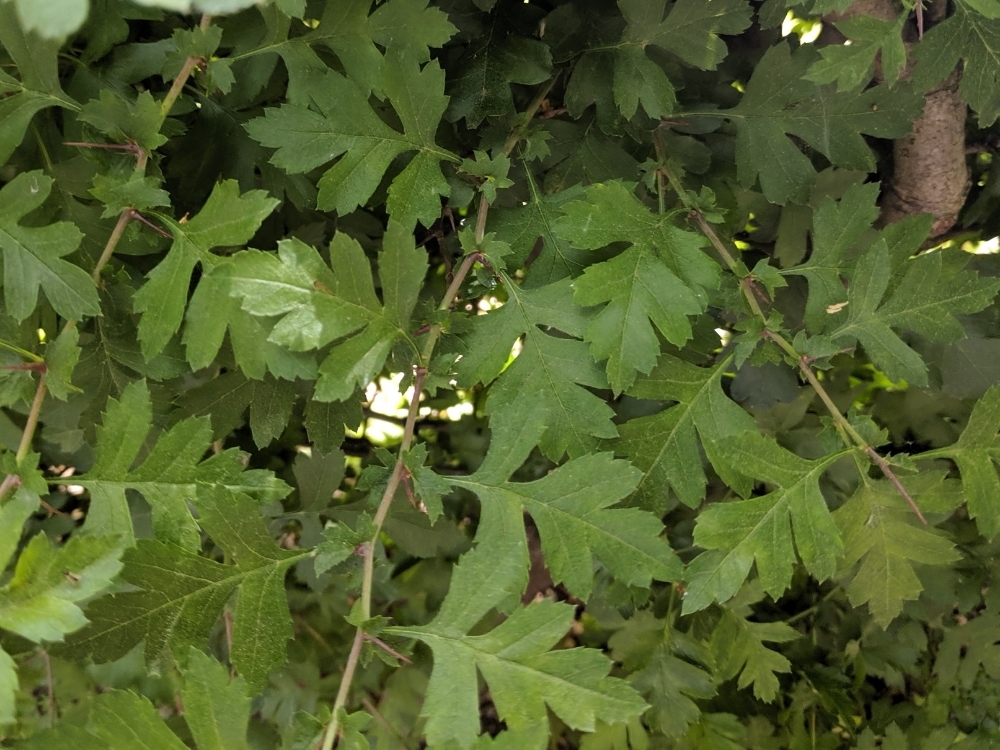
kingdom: Plantae
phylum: Tracheophyta
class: Magnoliopsida
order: Rosales
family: Rosaceae
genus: Crataegus
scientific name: Crataegus monogyna
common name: Hawthorn
